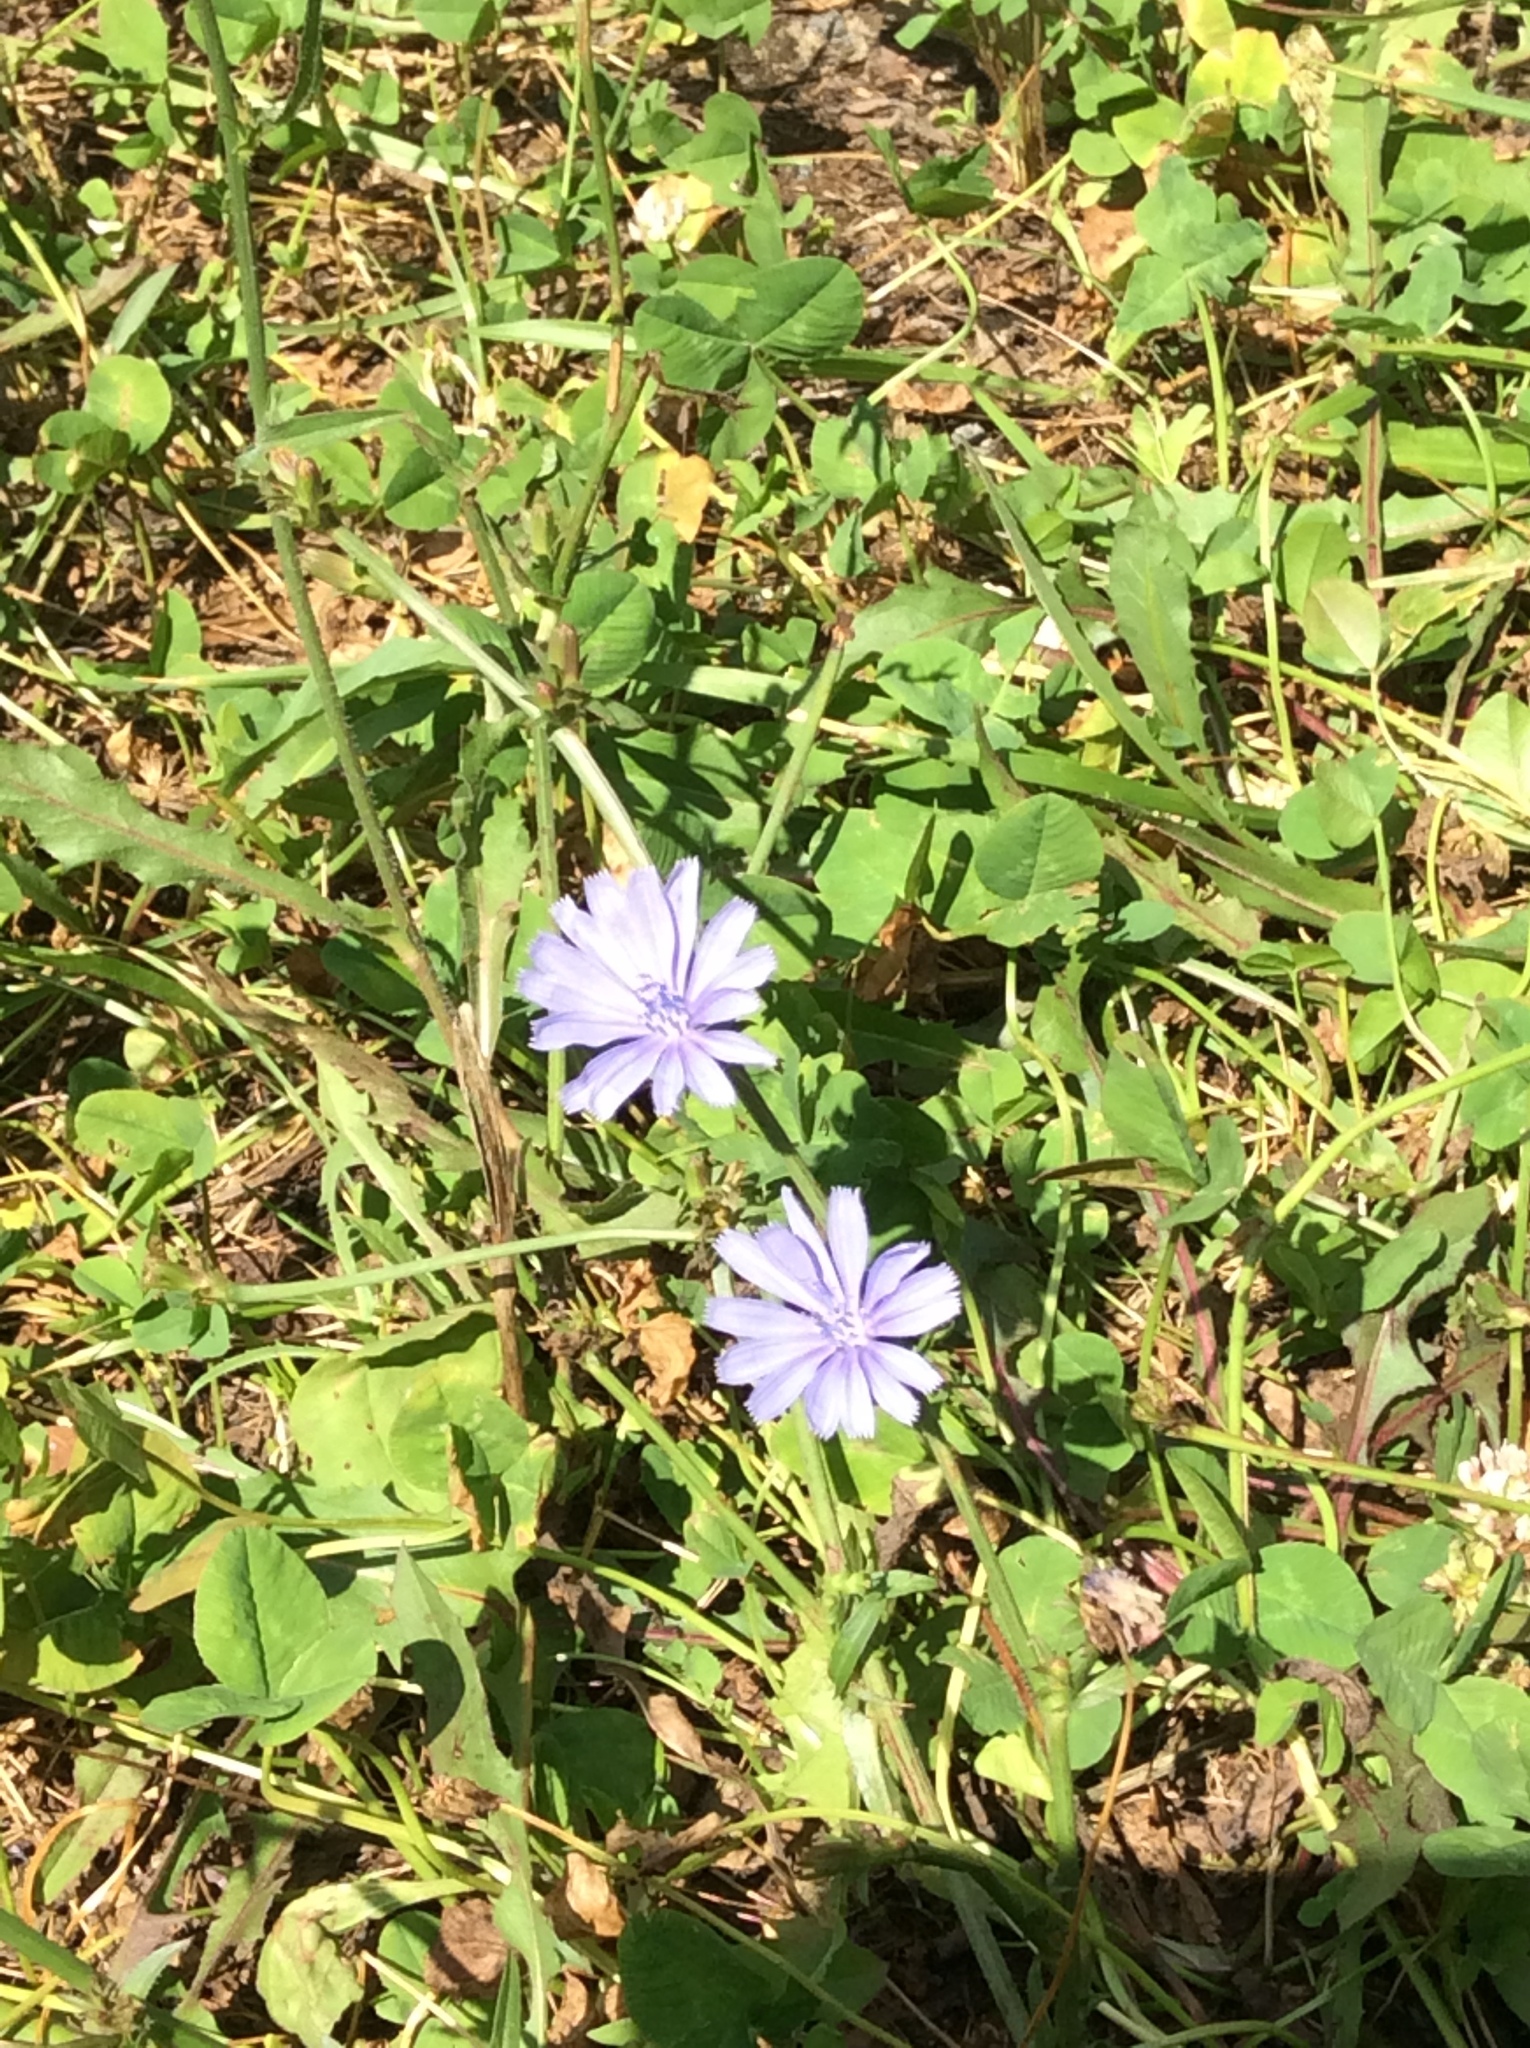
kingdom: Plantae
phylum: Tracheophyta
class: Magnoliopsida
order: Asterales
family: Asteraceae
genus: Cichorium
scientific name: Cichorium intybus
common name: Chicory
